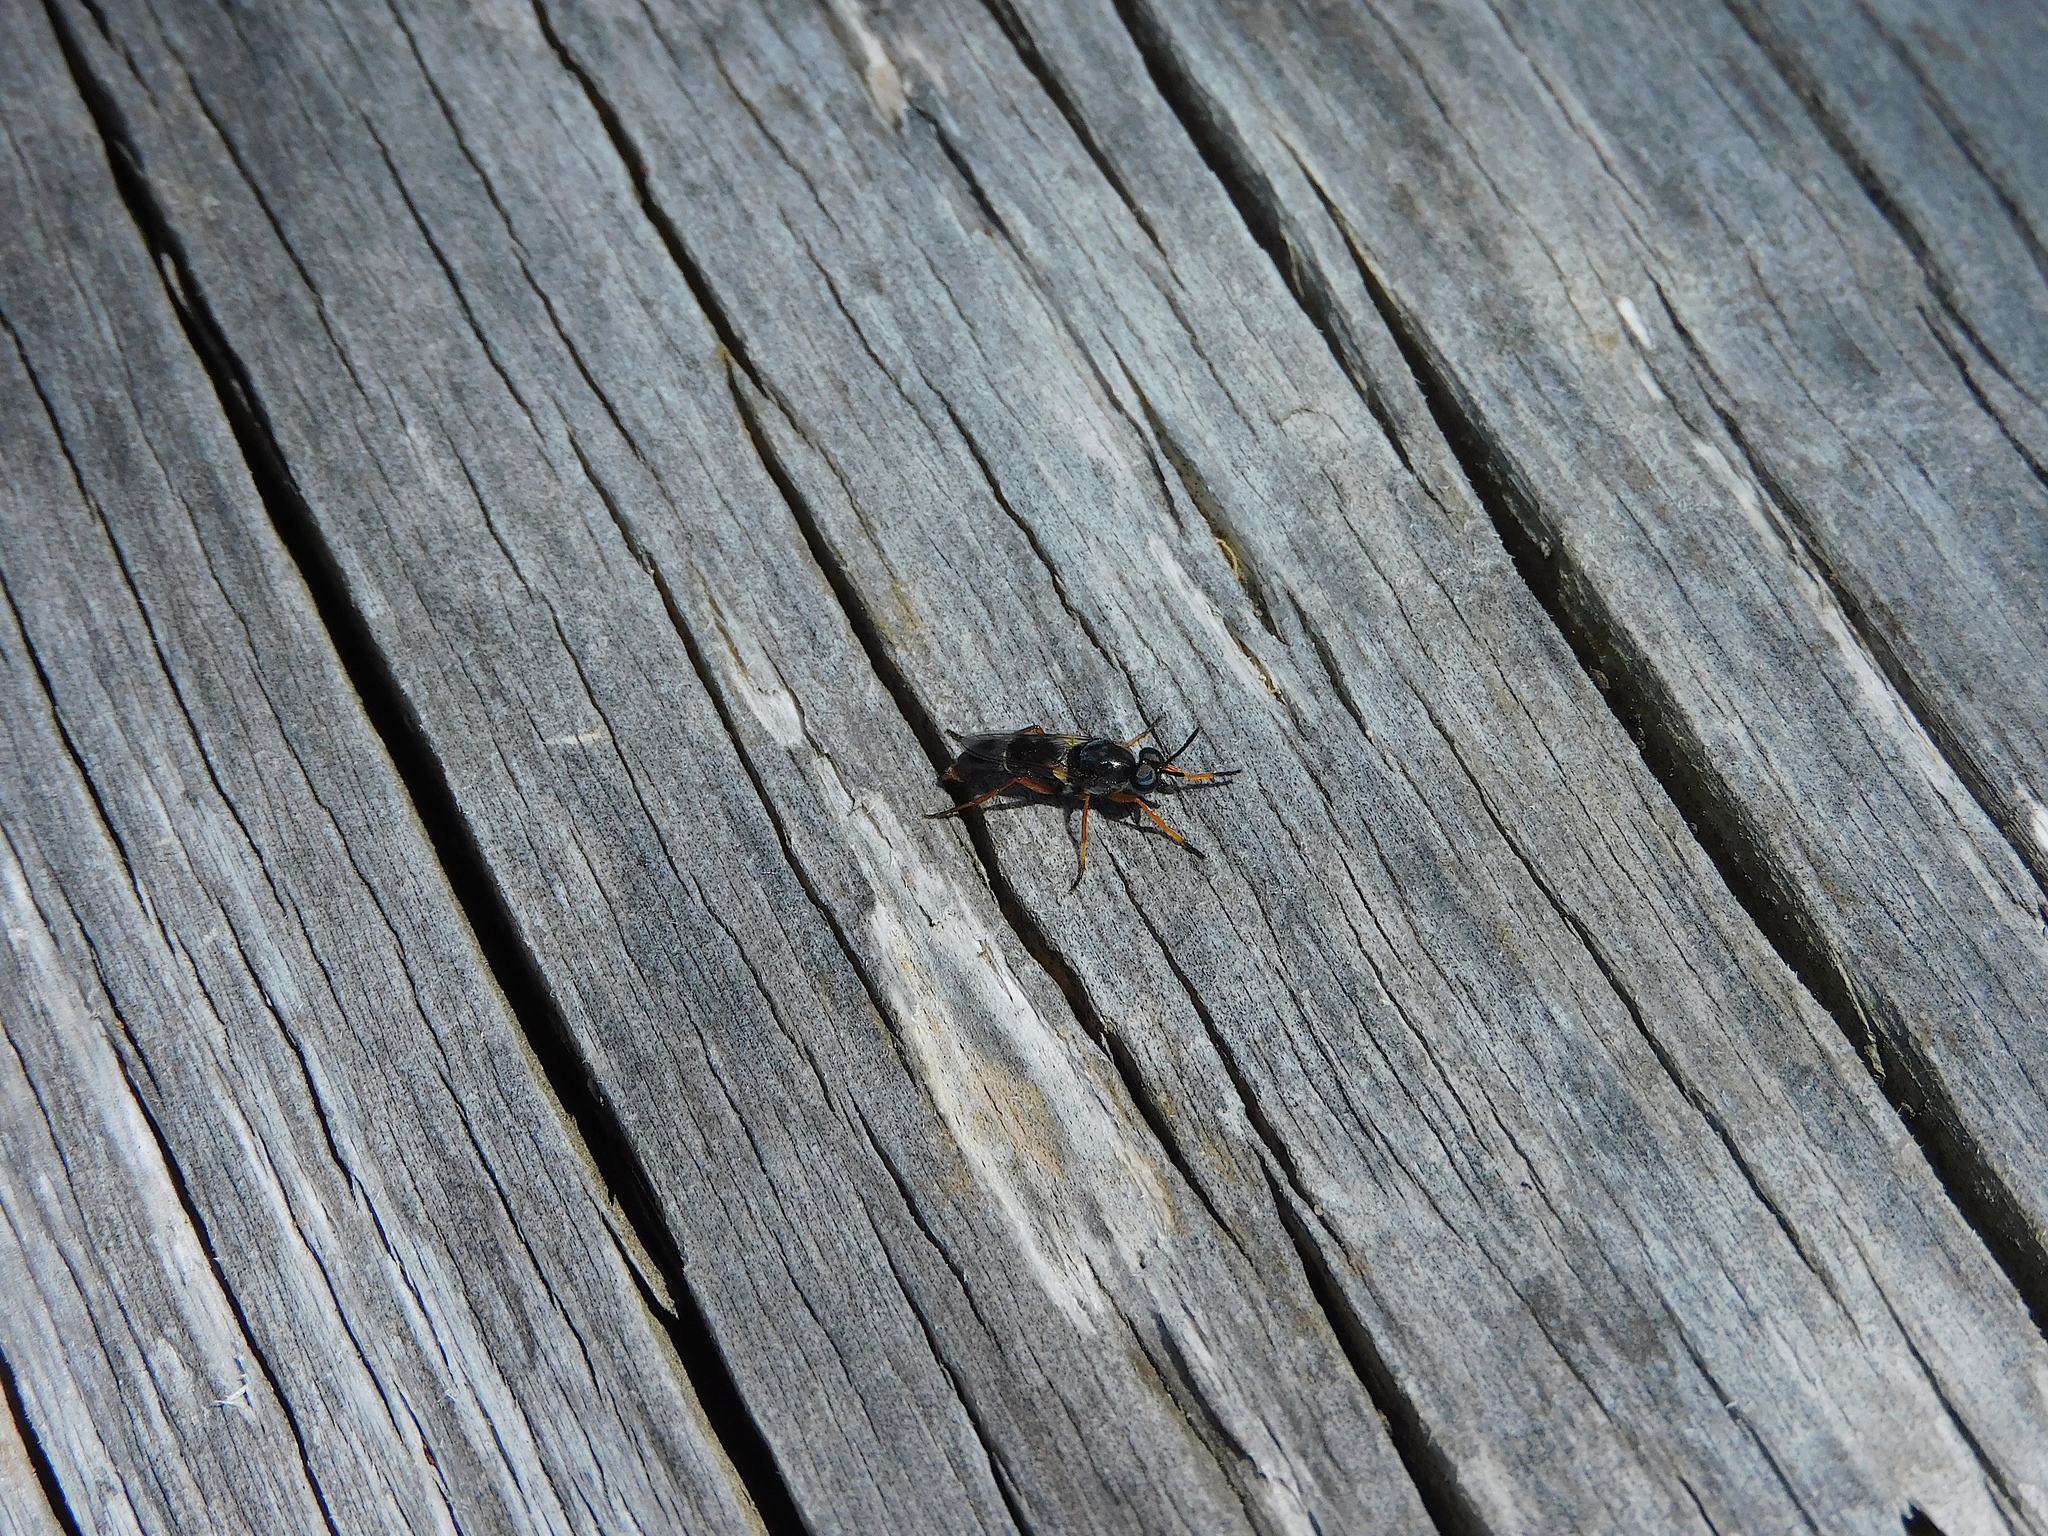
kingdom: Animalia
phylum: Arthropoda
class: Insecta
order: Diptera
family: Therevidae
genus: Phycus
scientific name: Phycus quatiens
